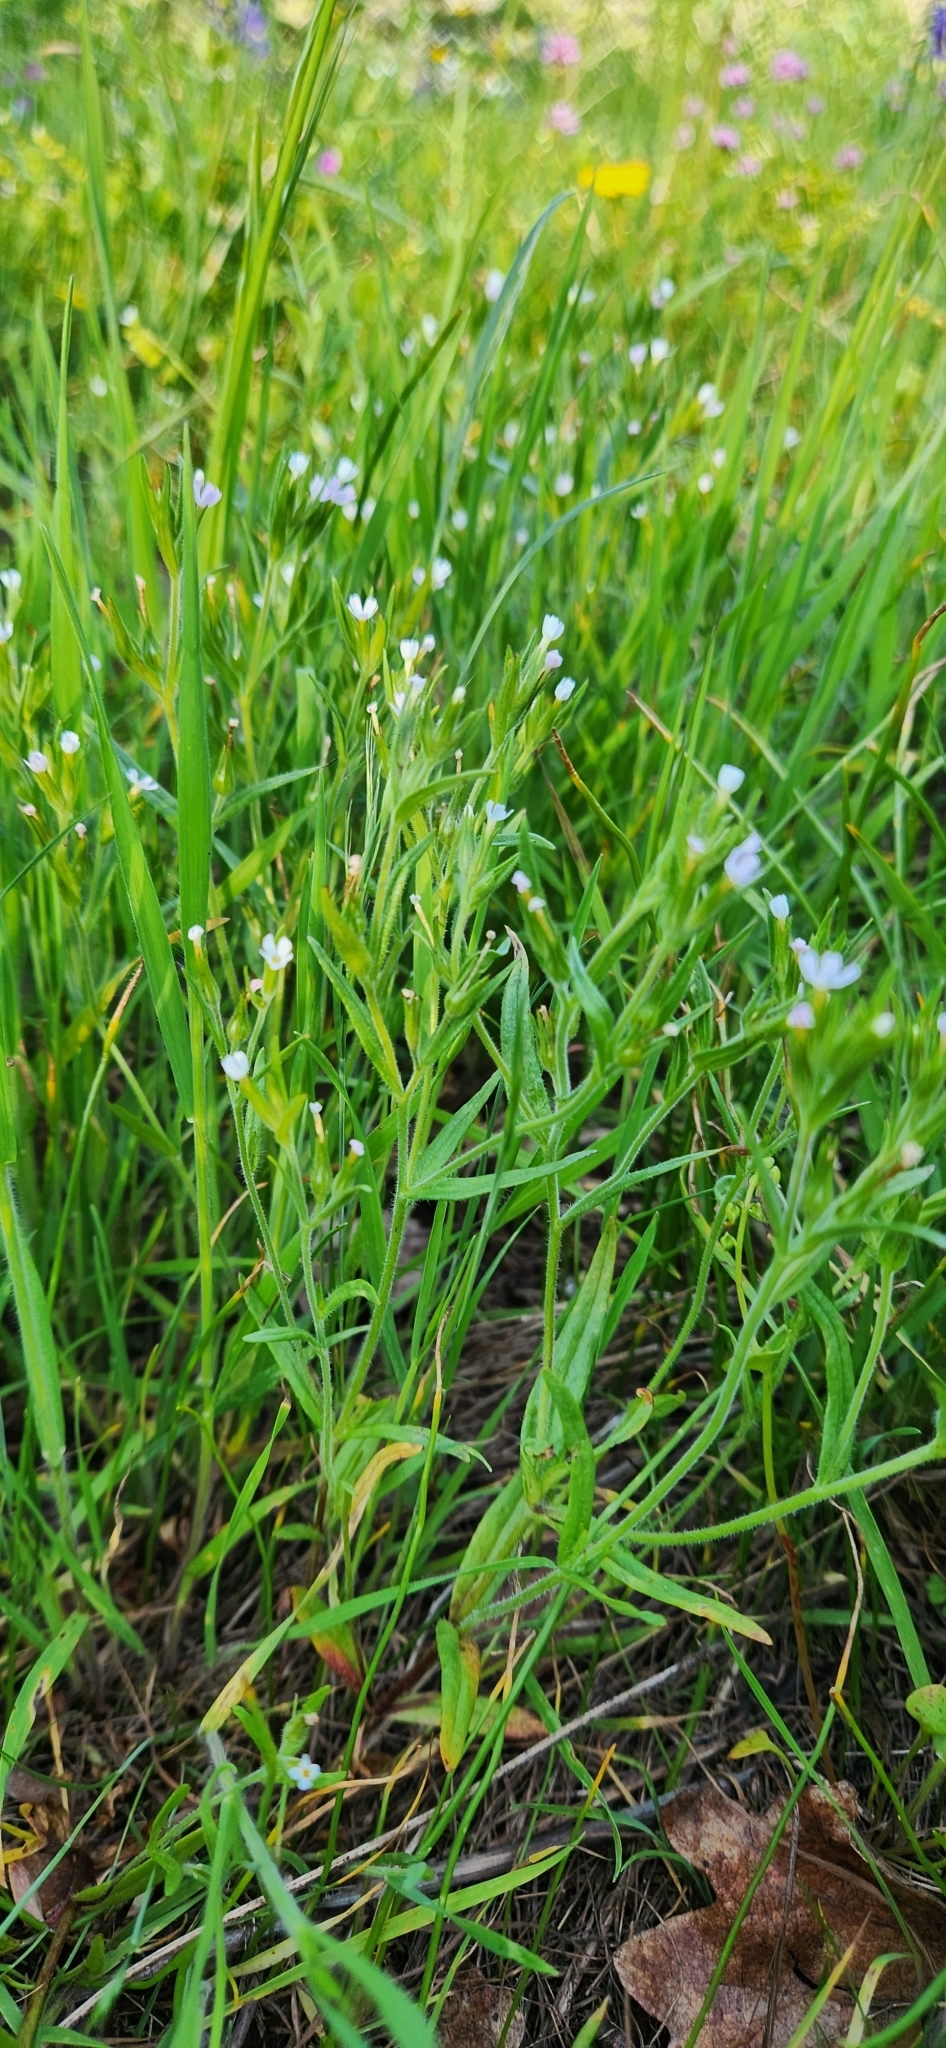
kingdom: Plantae
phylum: Tracheophyta
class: Magnoliopsida
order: Ericales
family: Polemoniaceae
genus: Phlox
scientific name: Phlox gracilis
